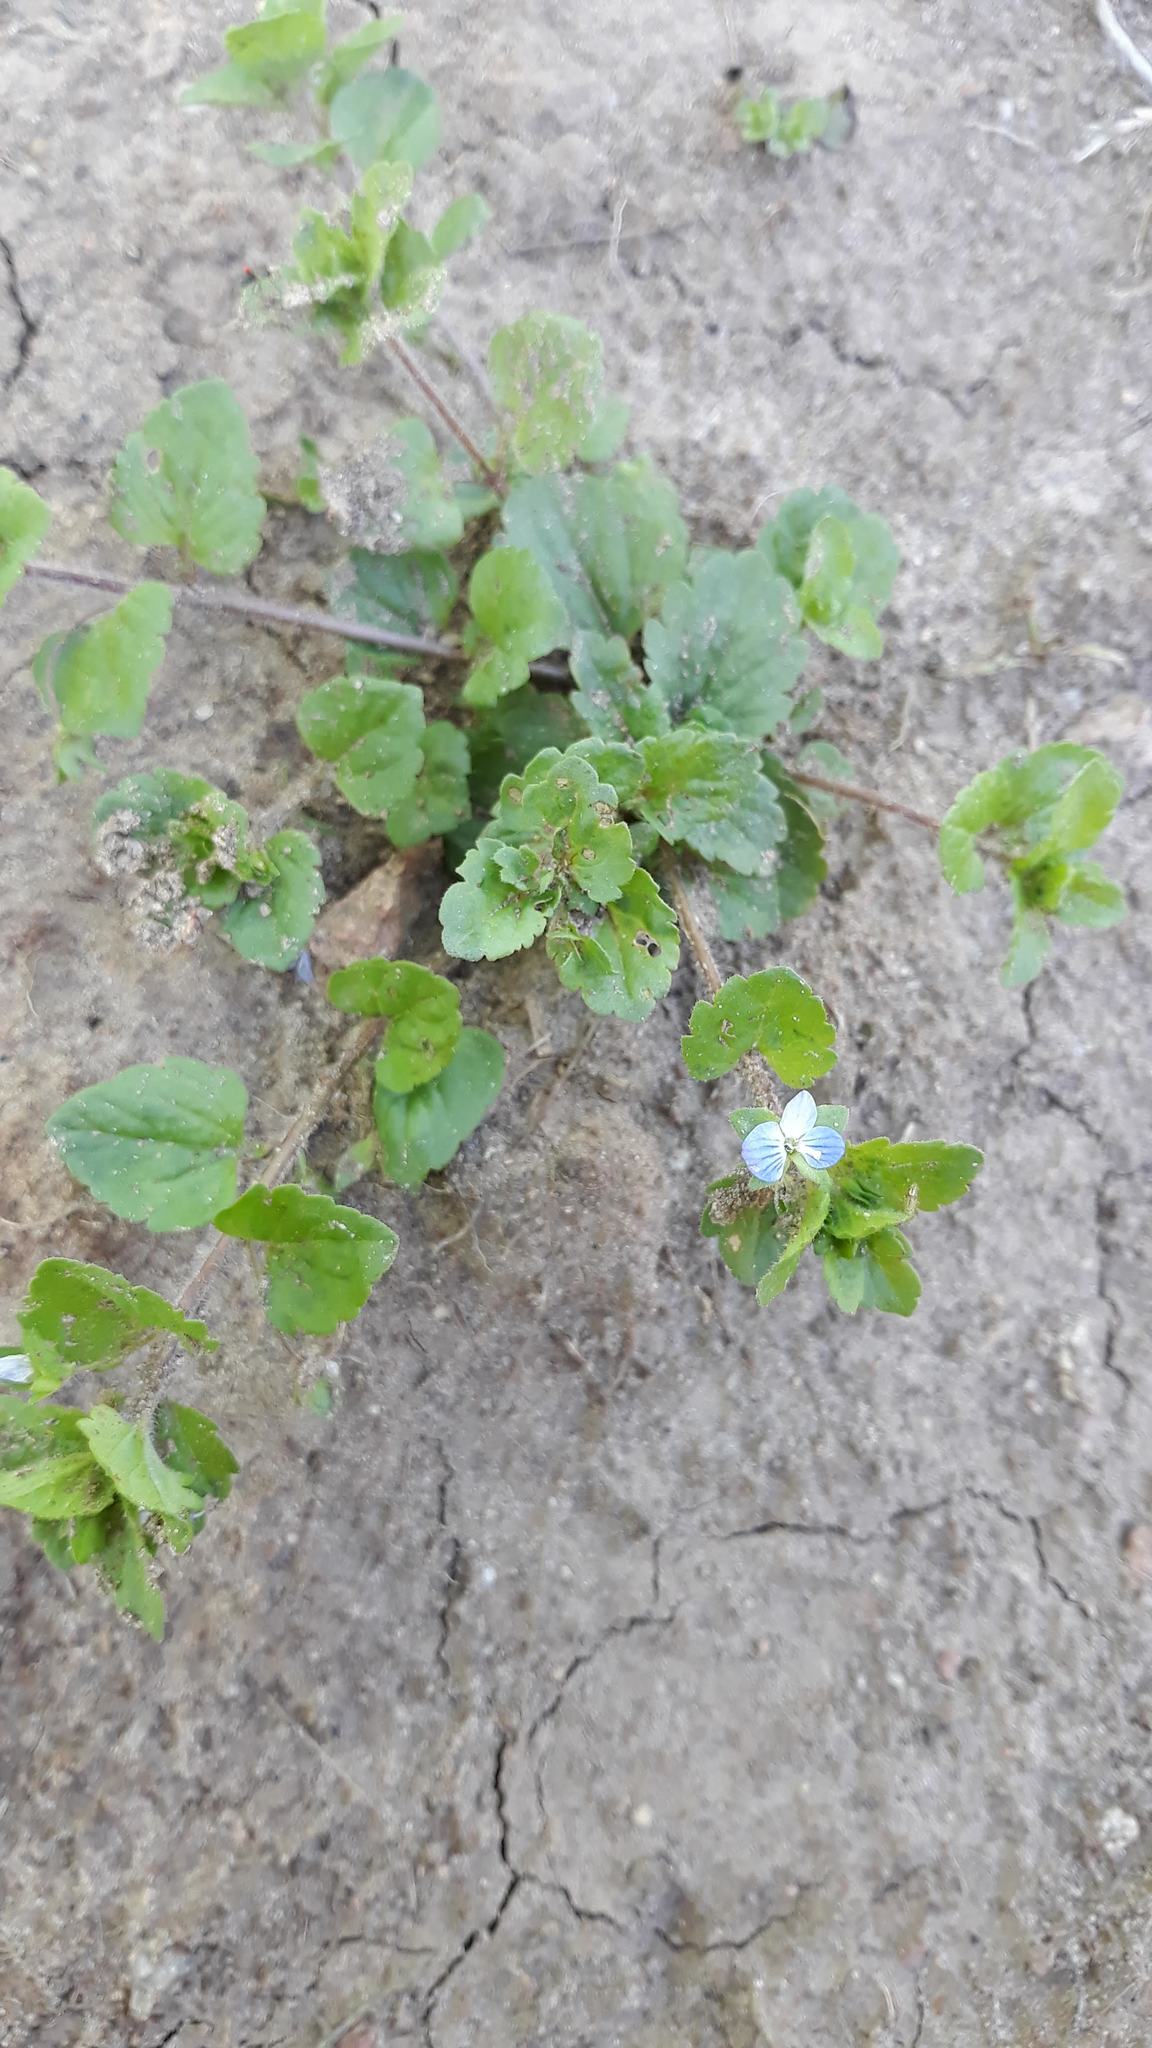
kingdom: Plantae
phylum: Tracheophyta
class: Magnoliopsida
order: Lamiales
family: Plantaginaceae
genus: Veronica
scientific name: Veronica persica
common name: Common field-speedwell
